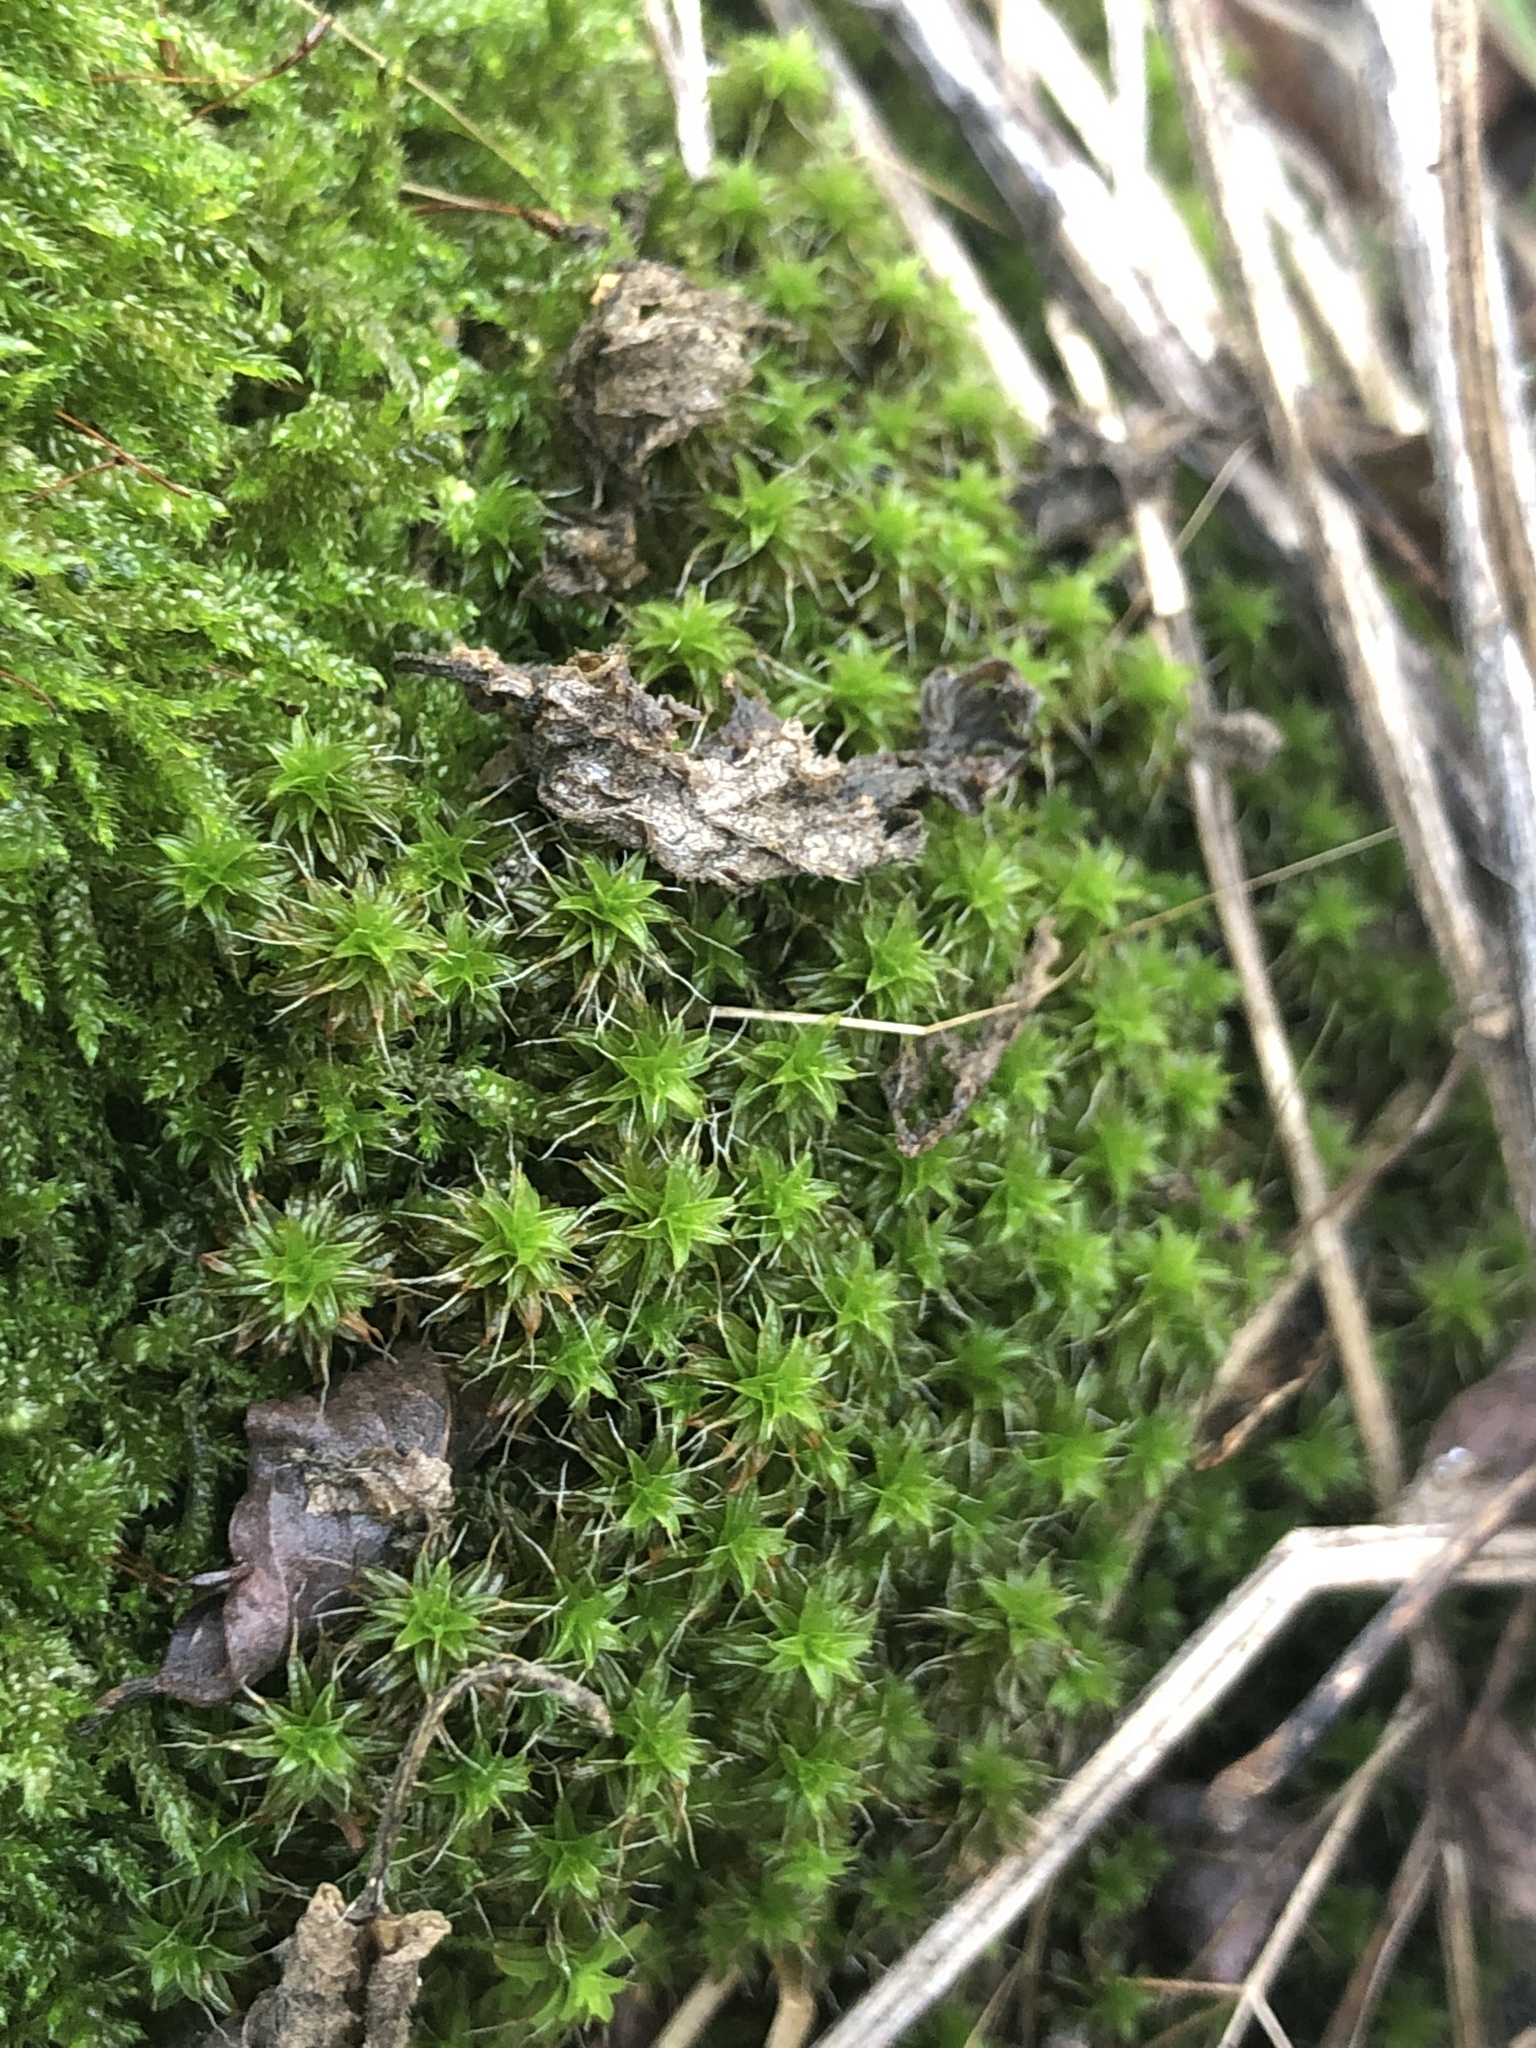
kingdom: Plantae
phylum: Bryophyta
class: Bryopsida
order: Pottiales
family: Pottiaceae
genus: Syntrichia
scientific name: Syntrichia ruralis
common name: Sidewalk screw moss
